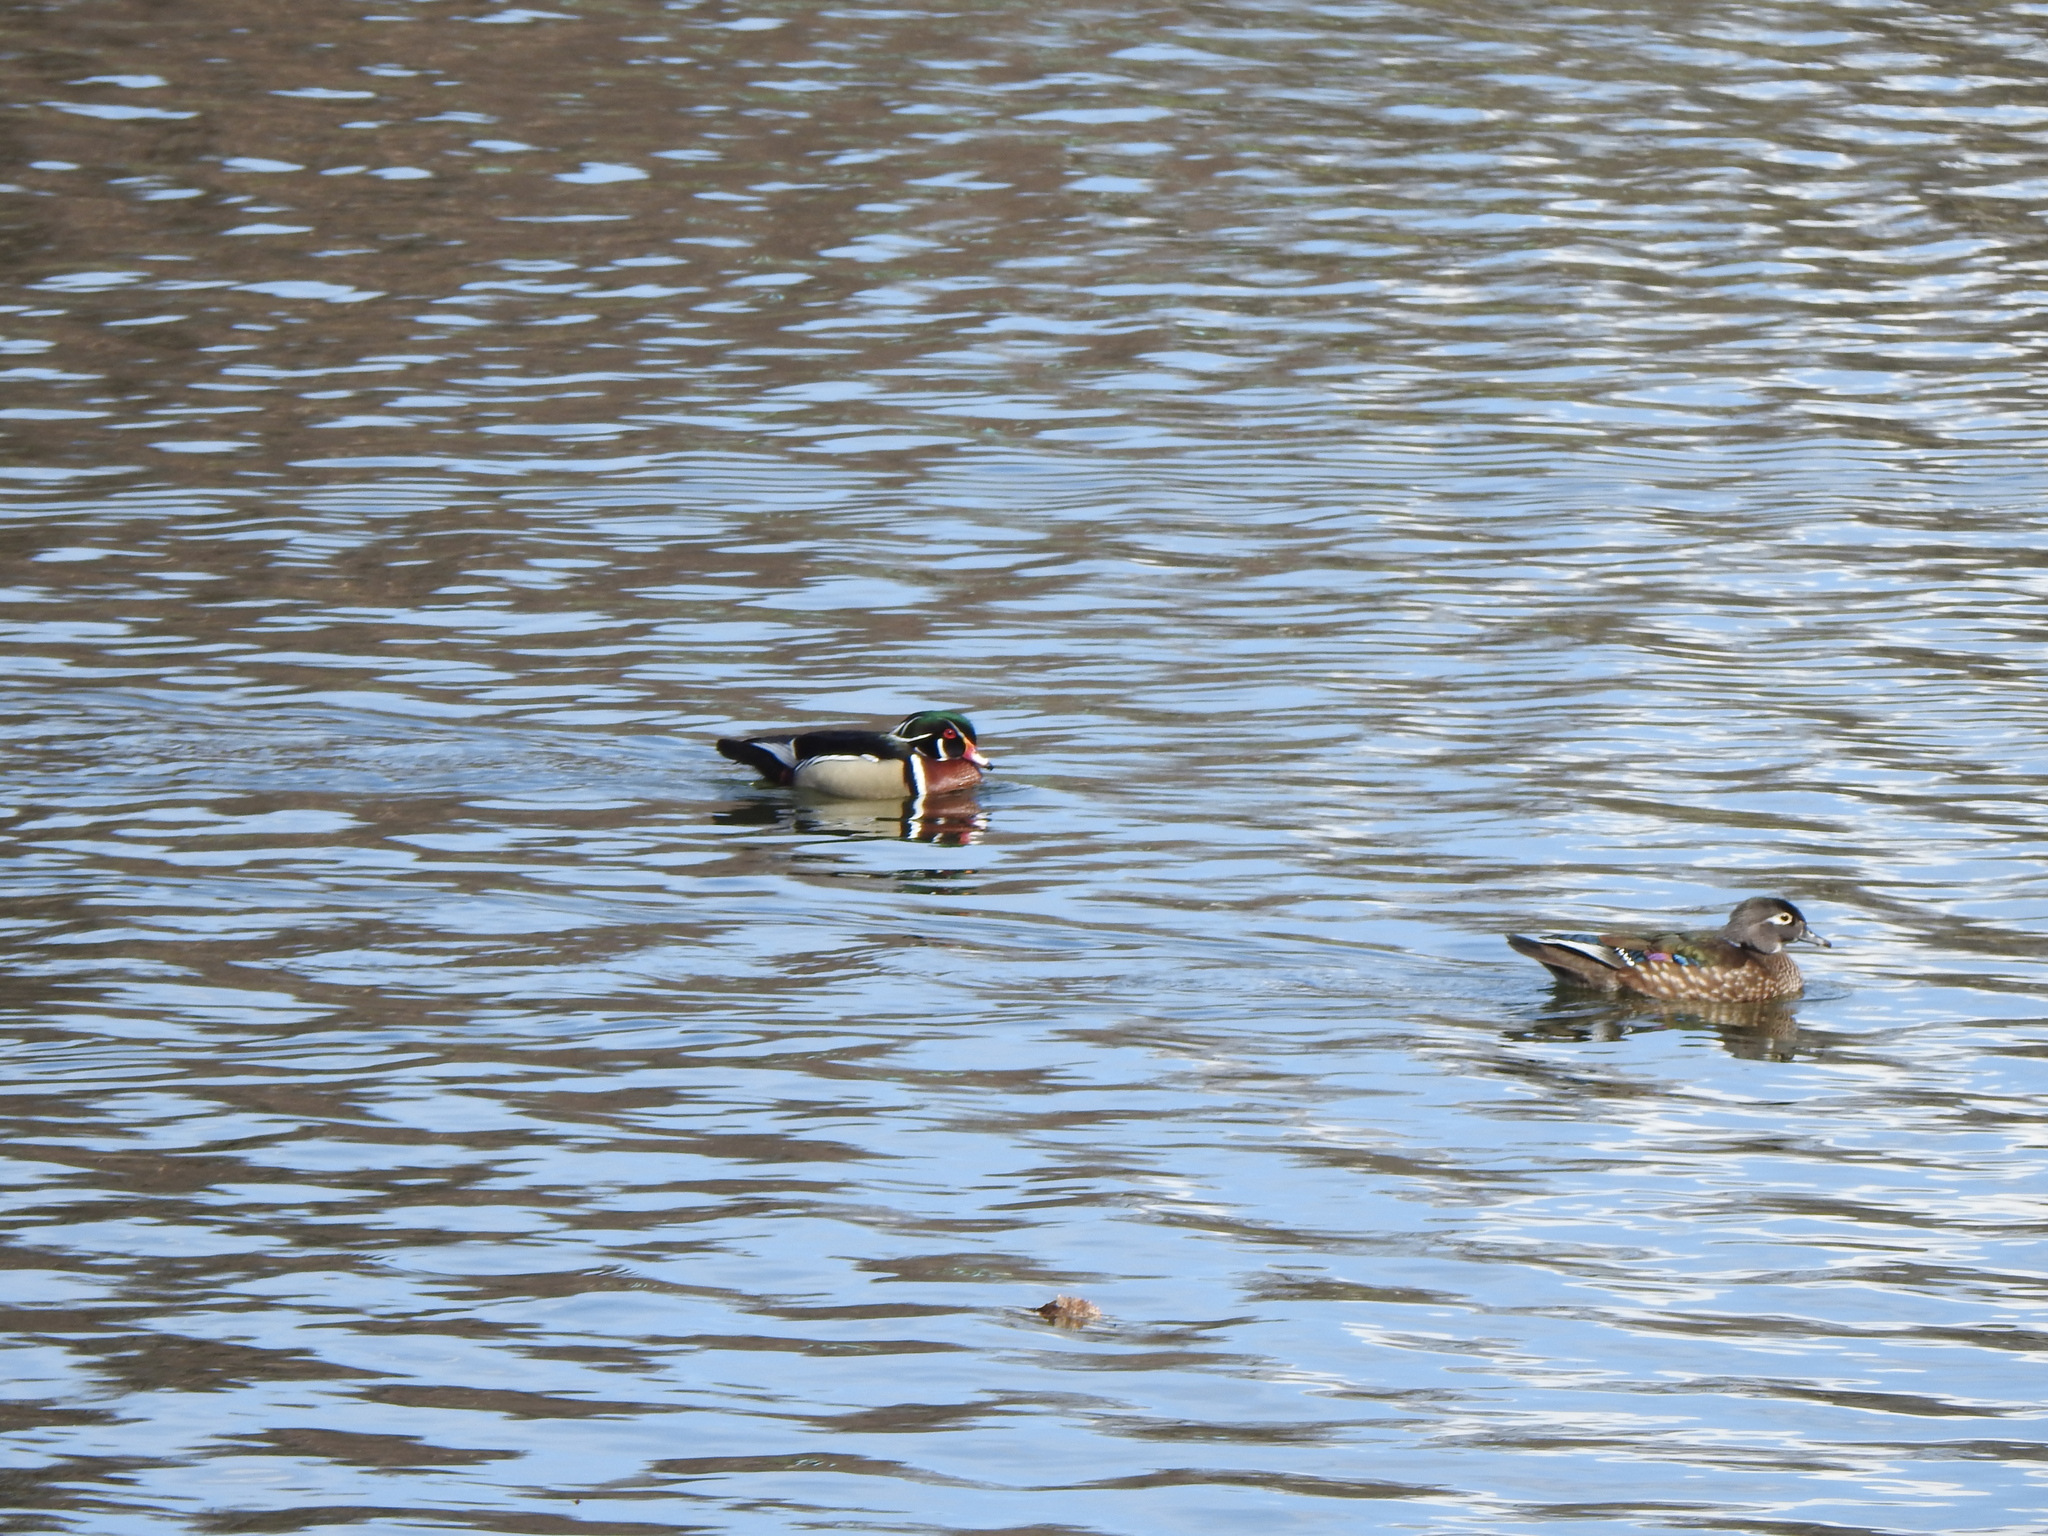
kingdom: Animalia
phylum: Chordata
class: Aves
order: Anseriformes
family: Anatidae
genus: Aix
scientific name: Aix sponsa
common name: Wood duck
